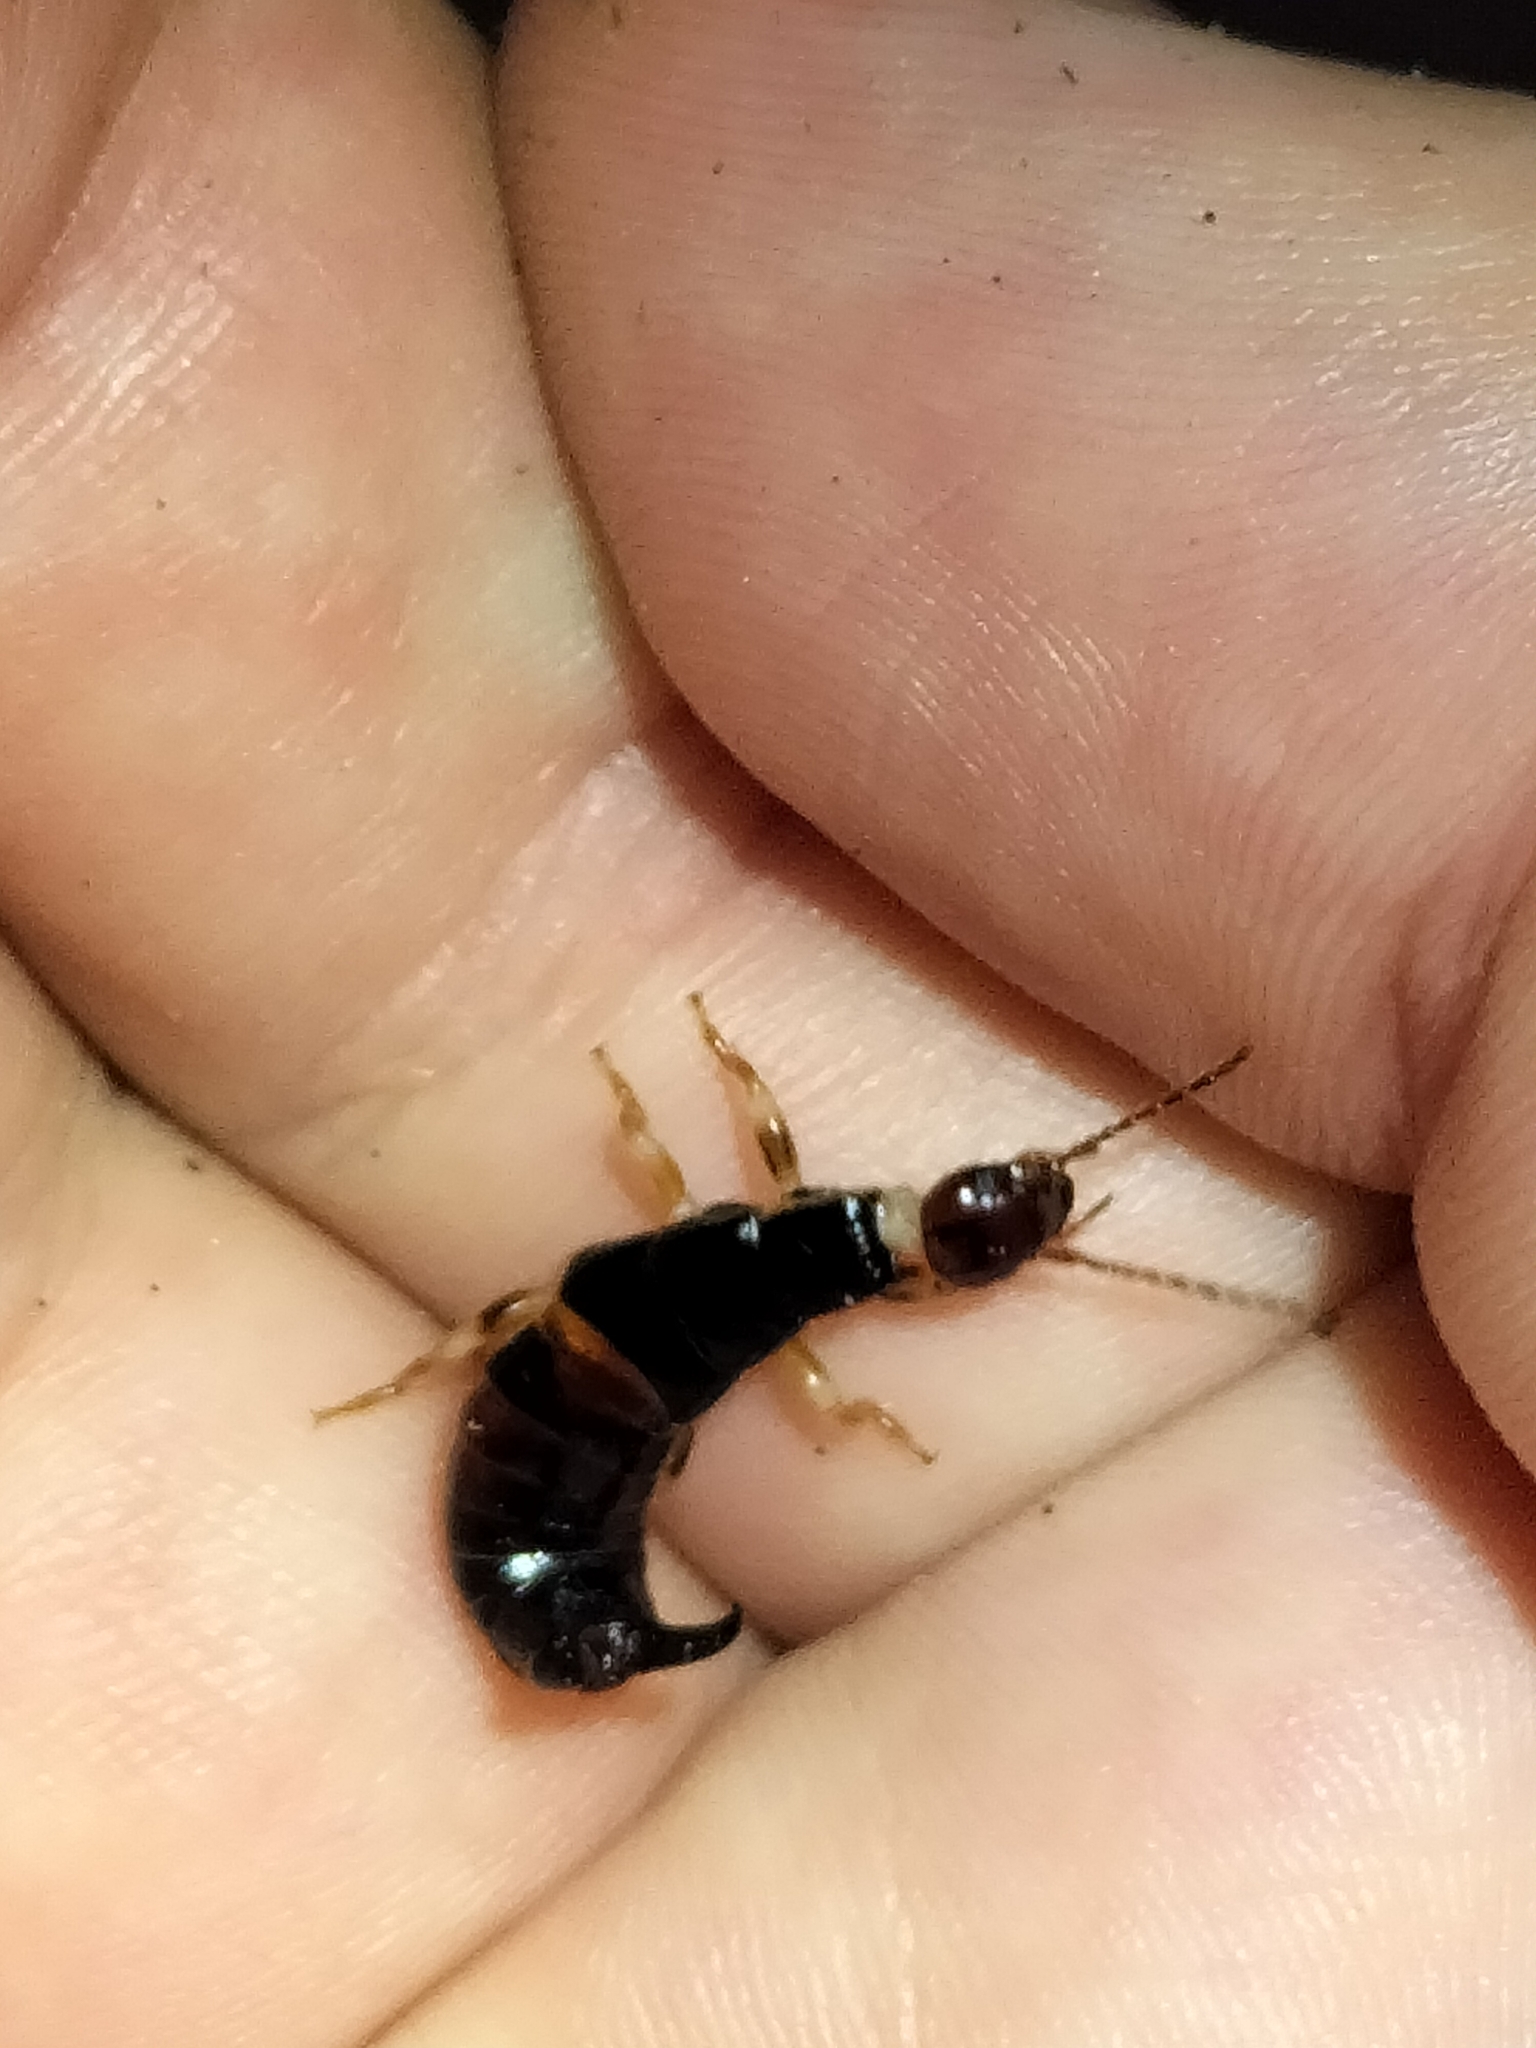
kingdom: Animalia
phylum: Arthropoda
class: Insecta
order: Dermaptera
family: Anisolabididae
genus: Titanolabis
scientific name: Titanolabis colossea
